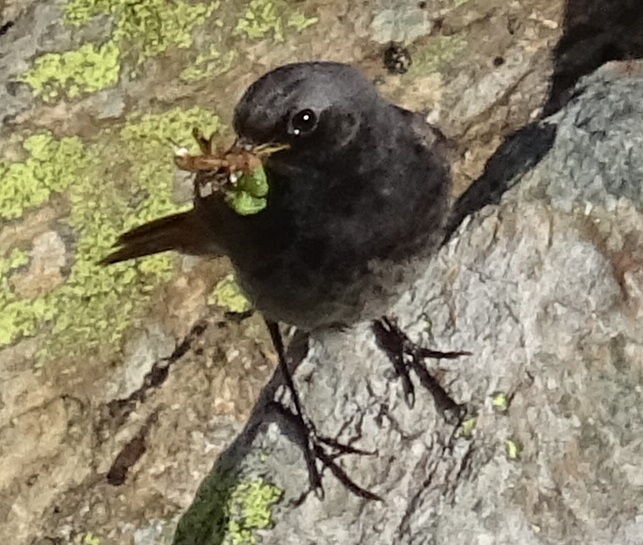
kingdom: Animalia
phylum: Chordata
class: Aves
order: Passeriformes
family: Muscicapidae
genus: Phoenicurus
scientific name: Phoenicurus ochruros
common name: Black redstart
